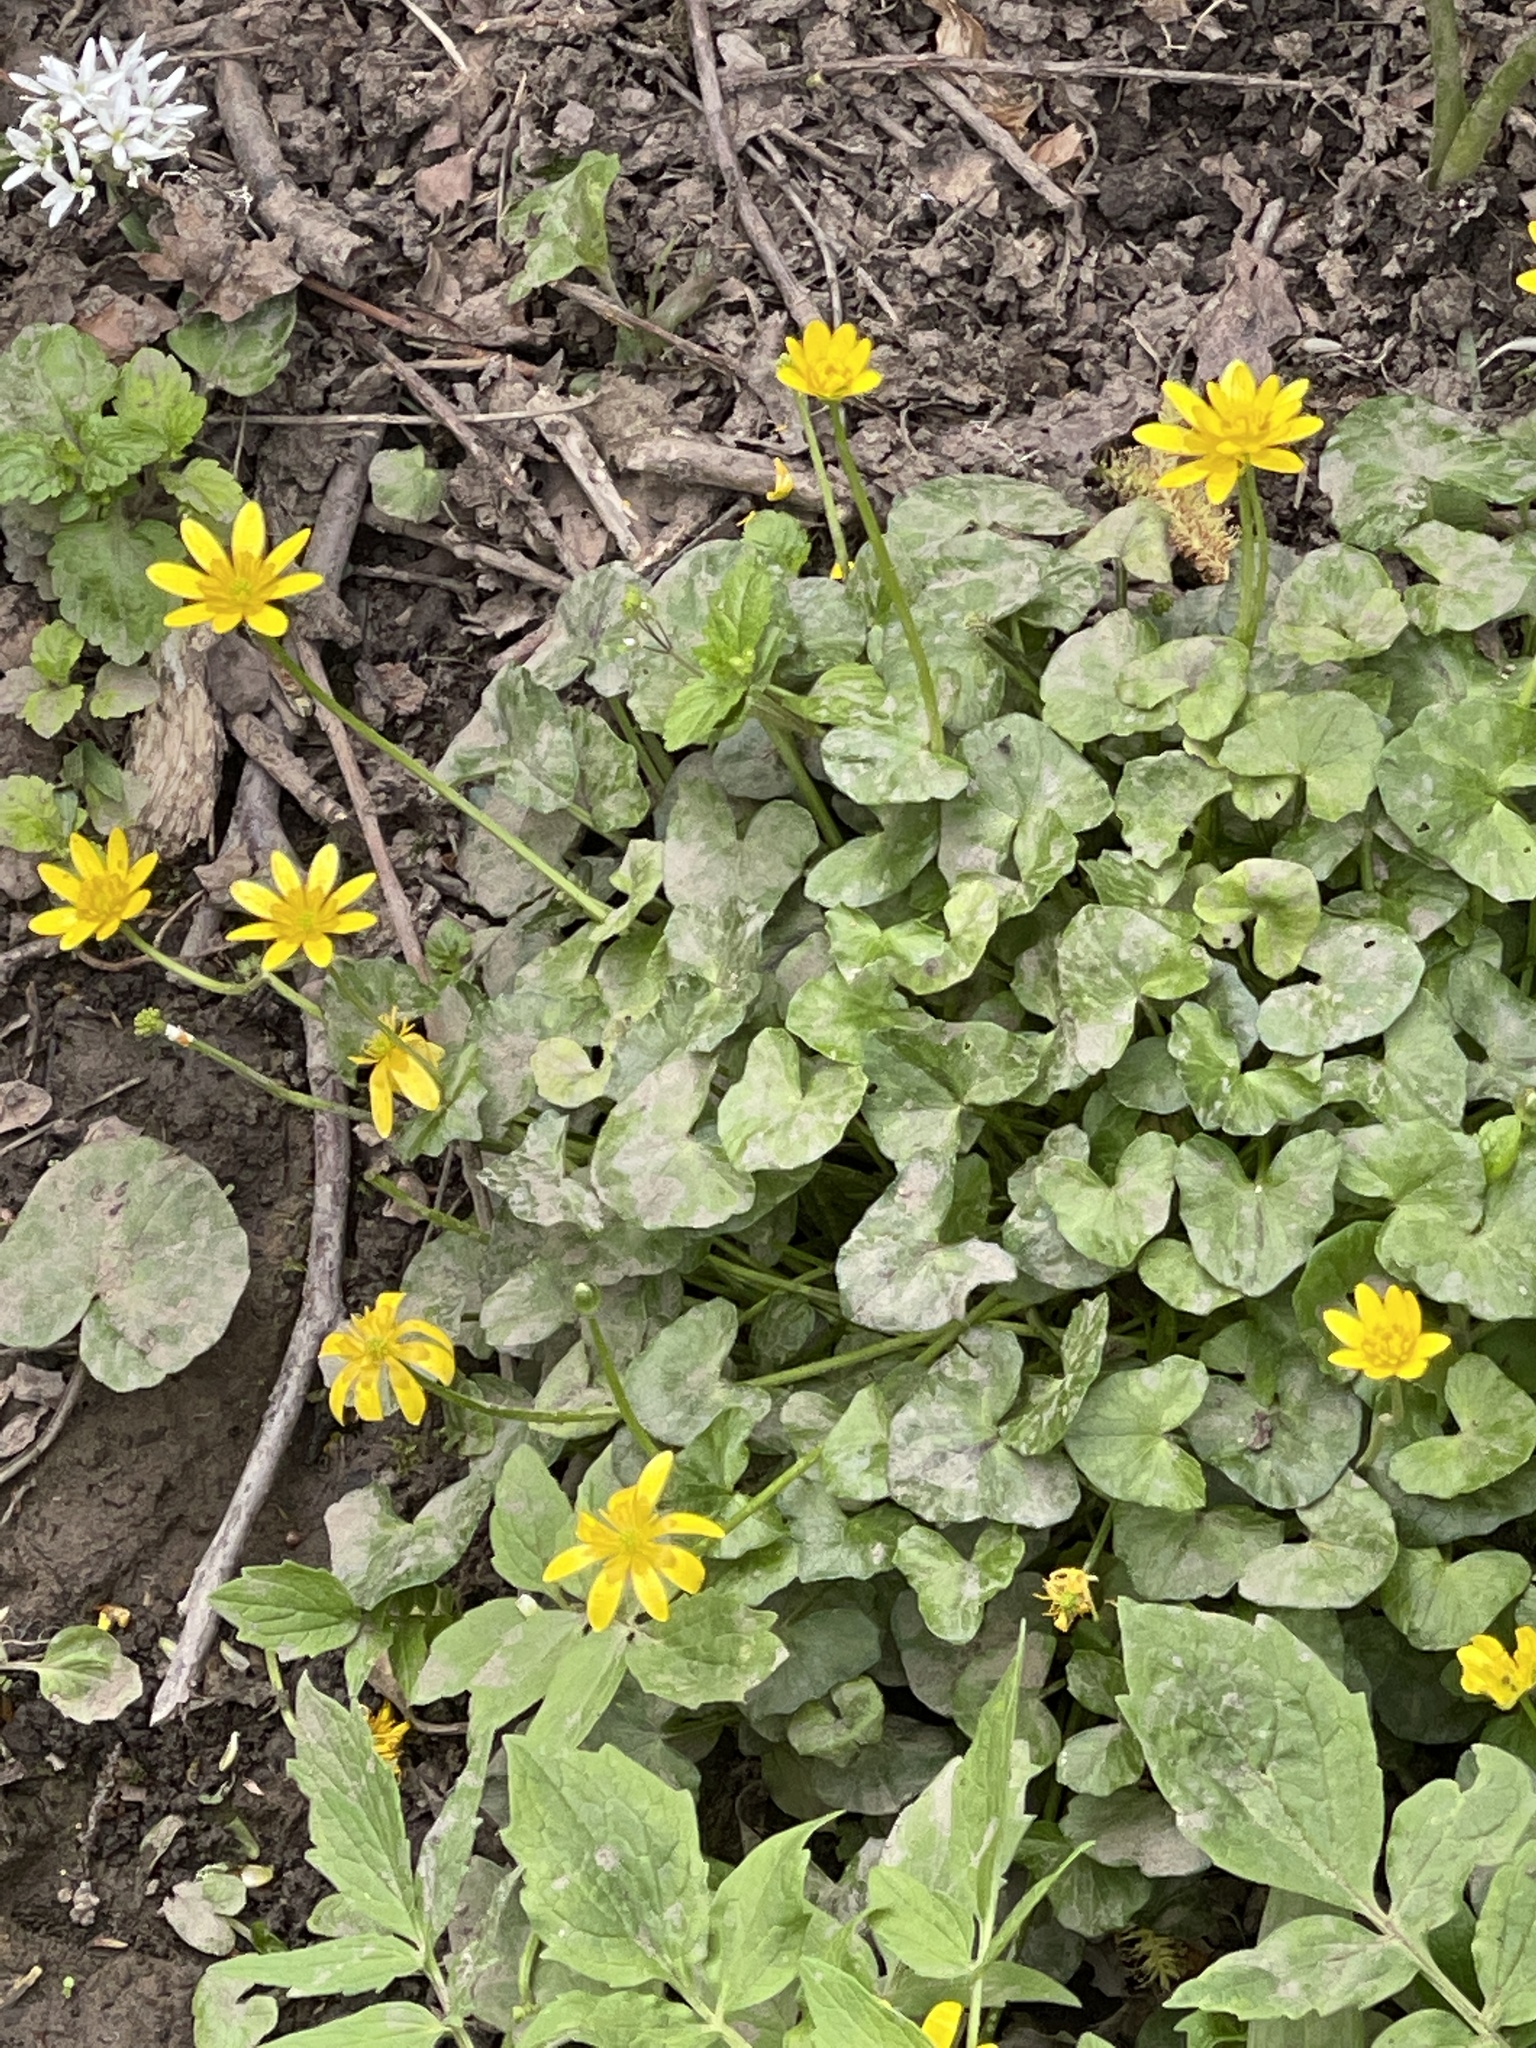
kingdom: Plantae
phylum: Tracheophyta
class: Magnoliopsida
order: Ranunculales
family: Ranunculaceae
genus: Ficaria
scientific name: Ficaria verna
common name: Lesser celandine
